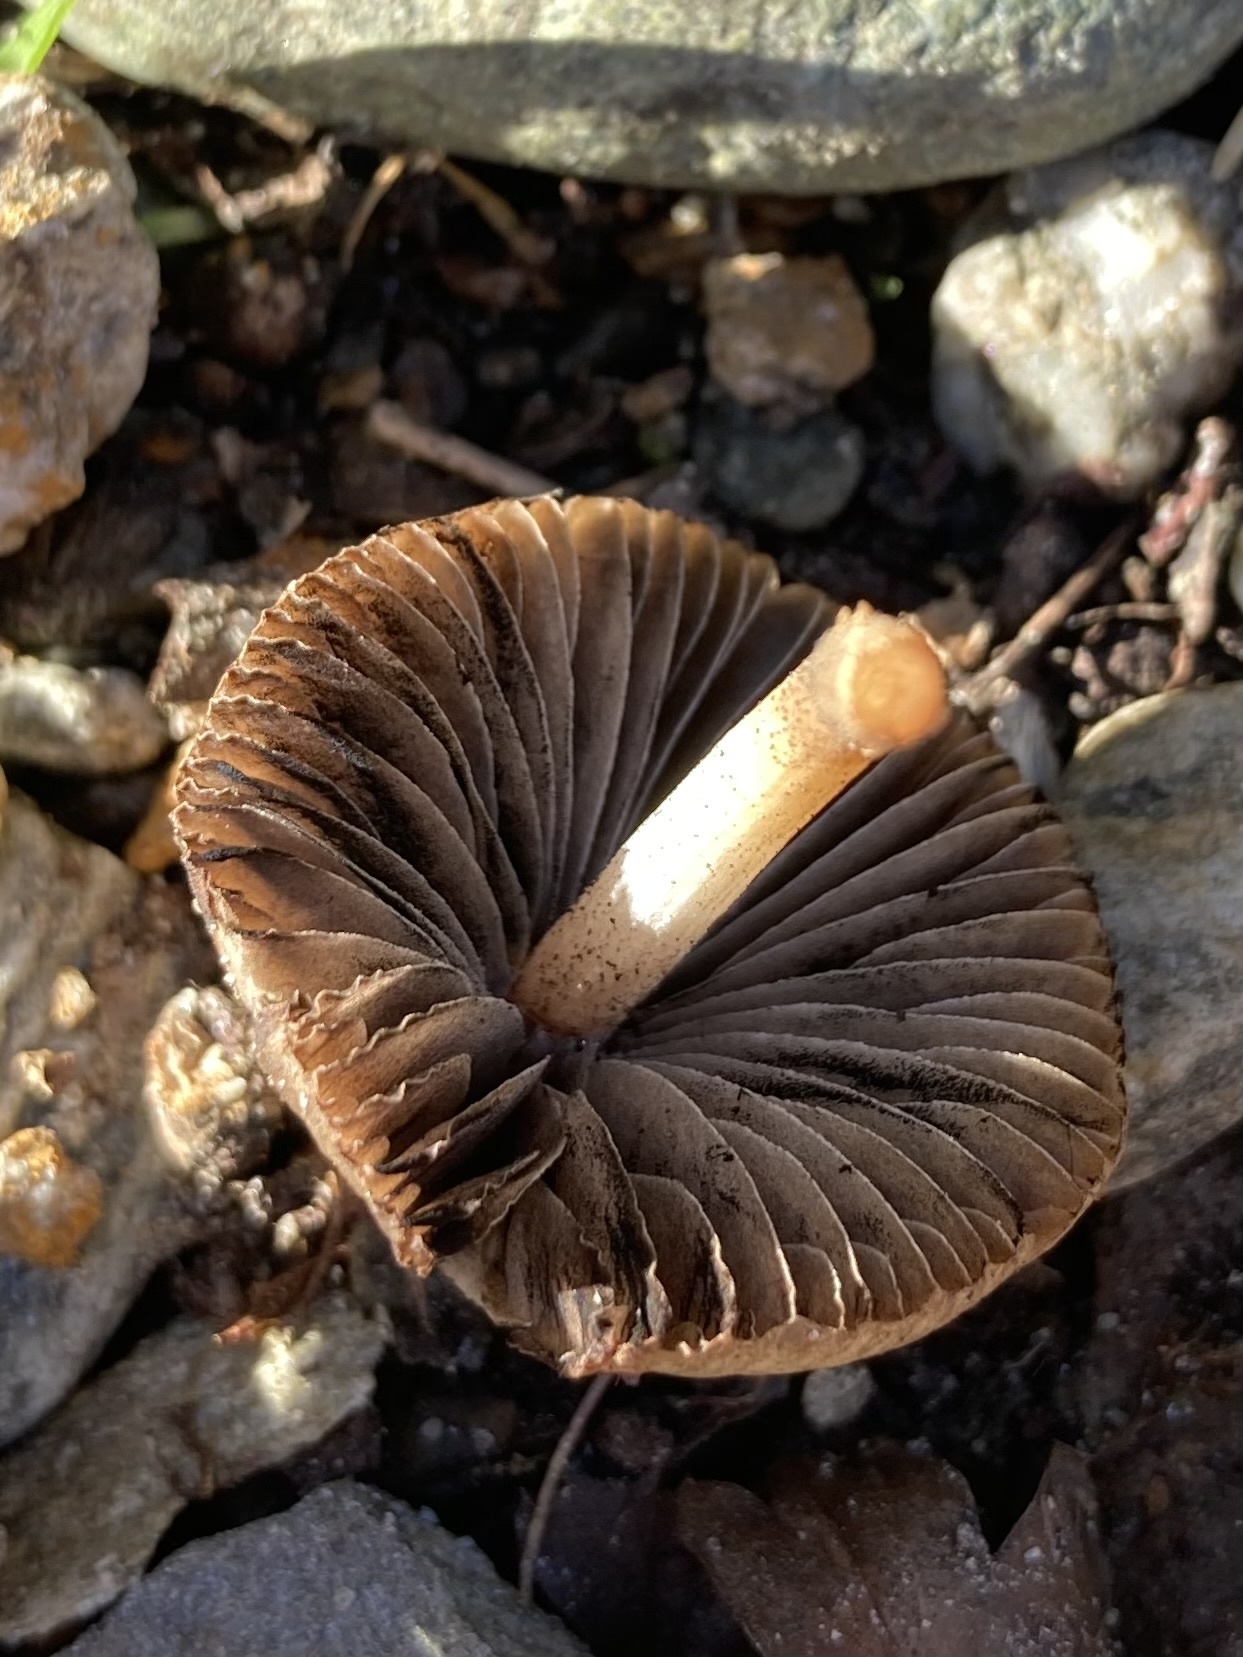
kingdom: Fungi
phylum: Basidiomycota
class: Agaricomycetes
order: Agaricales
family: Psathyrellaceae
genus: Parasola
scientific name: Parasola conopilea
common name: Conical brittlestem
